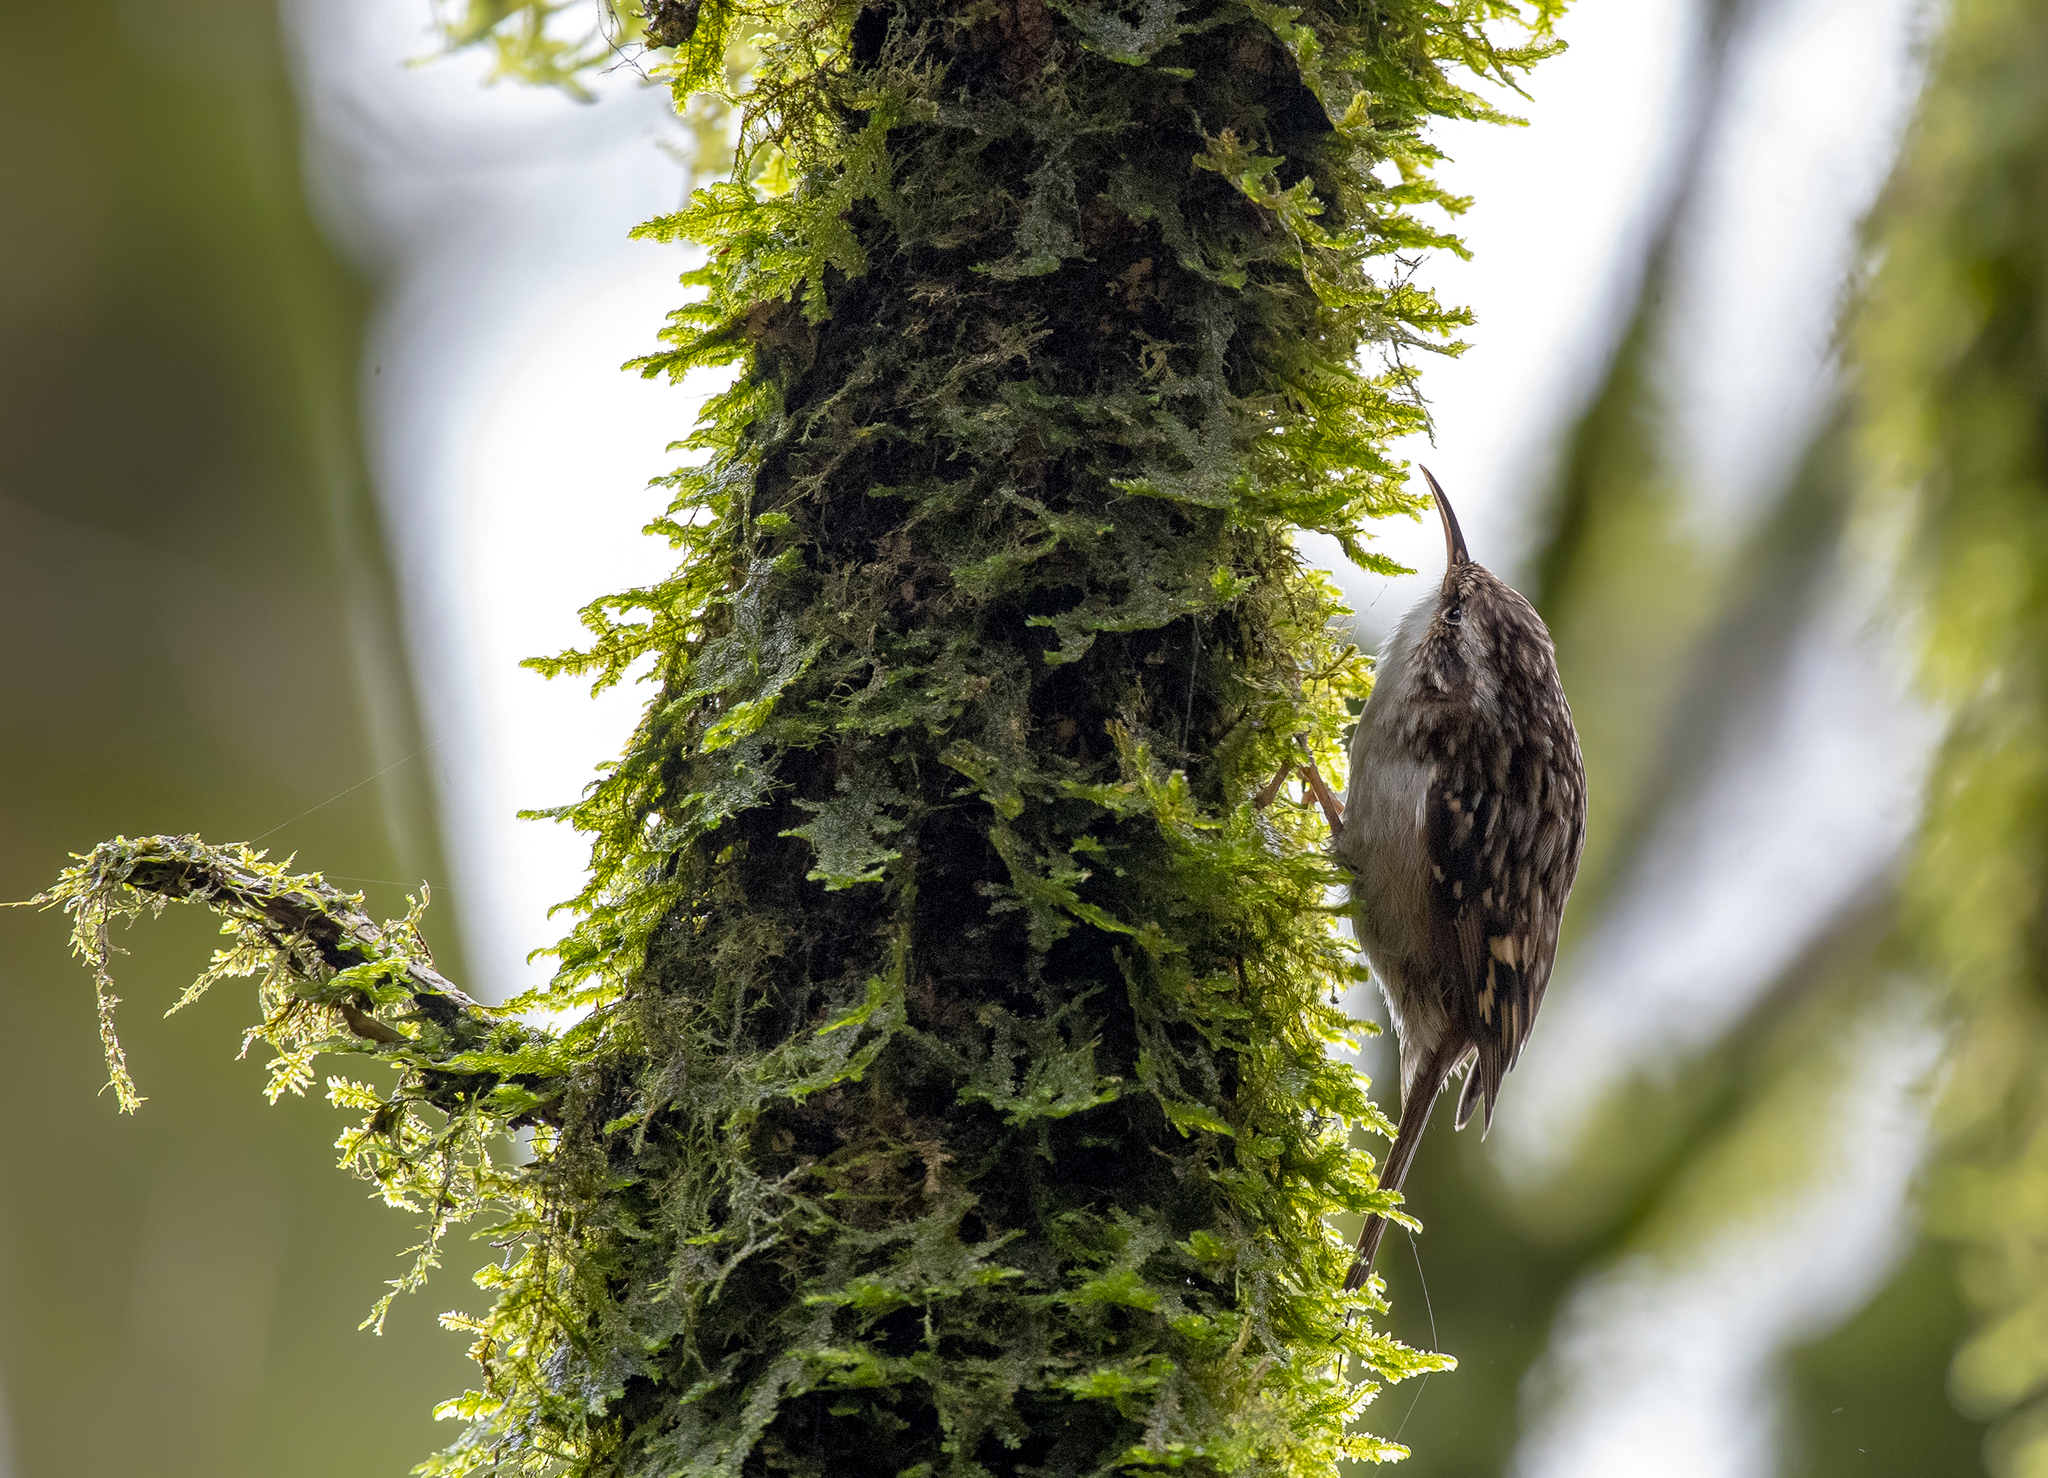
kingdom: Animalia
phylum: Chordata
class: Aves
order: Passeriformes
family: Certhiidae
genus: Certhia
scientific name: Certhia brachydactyla
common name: Short-toed treecreeper
